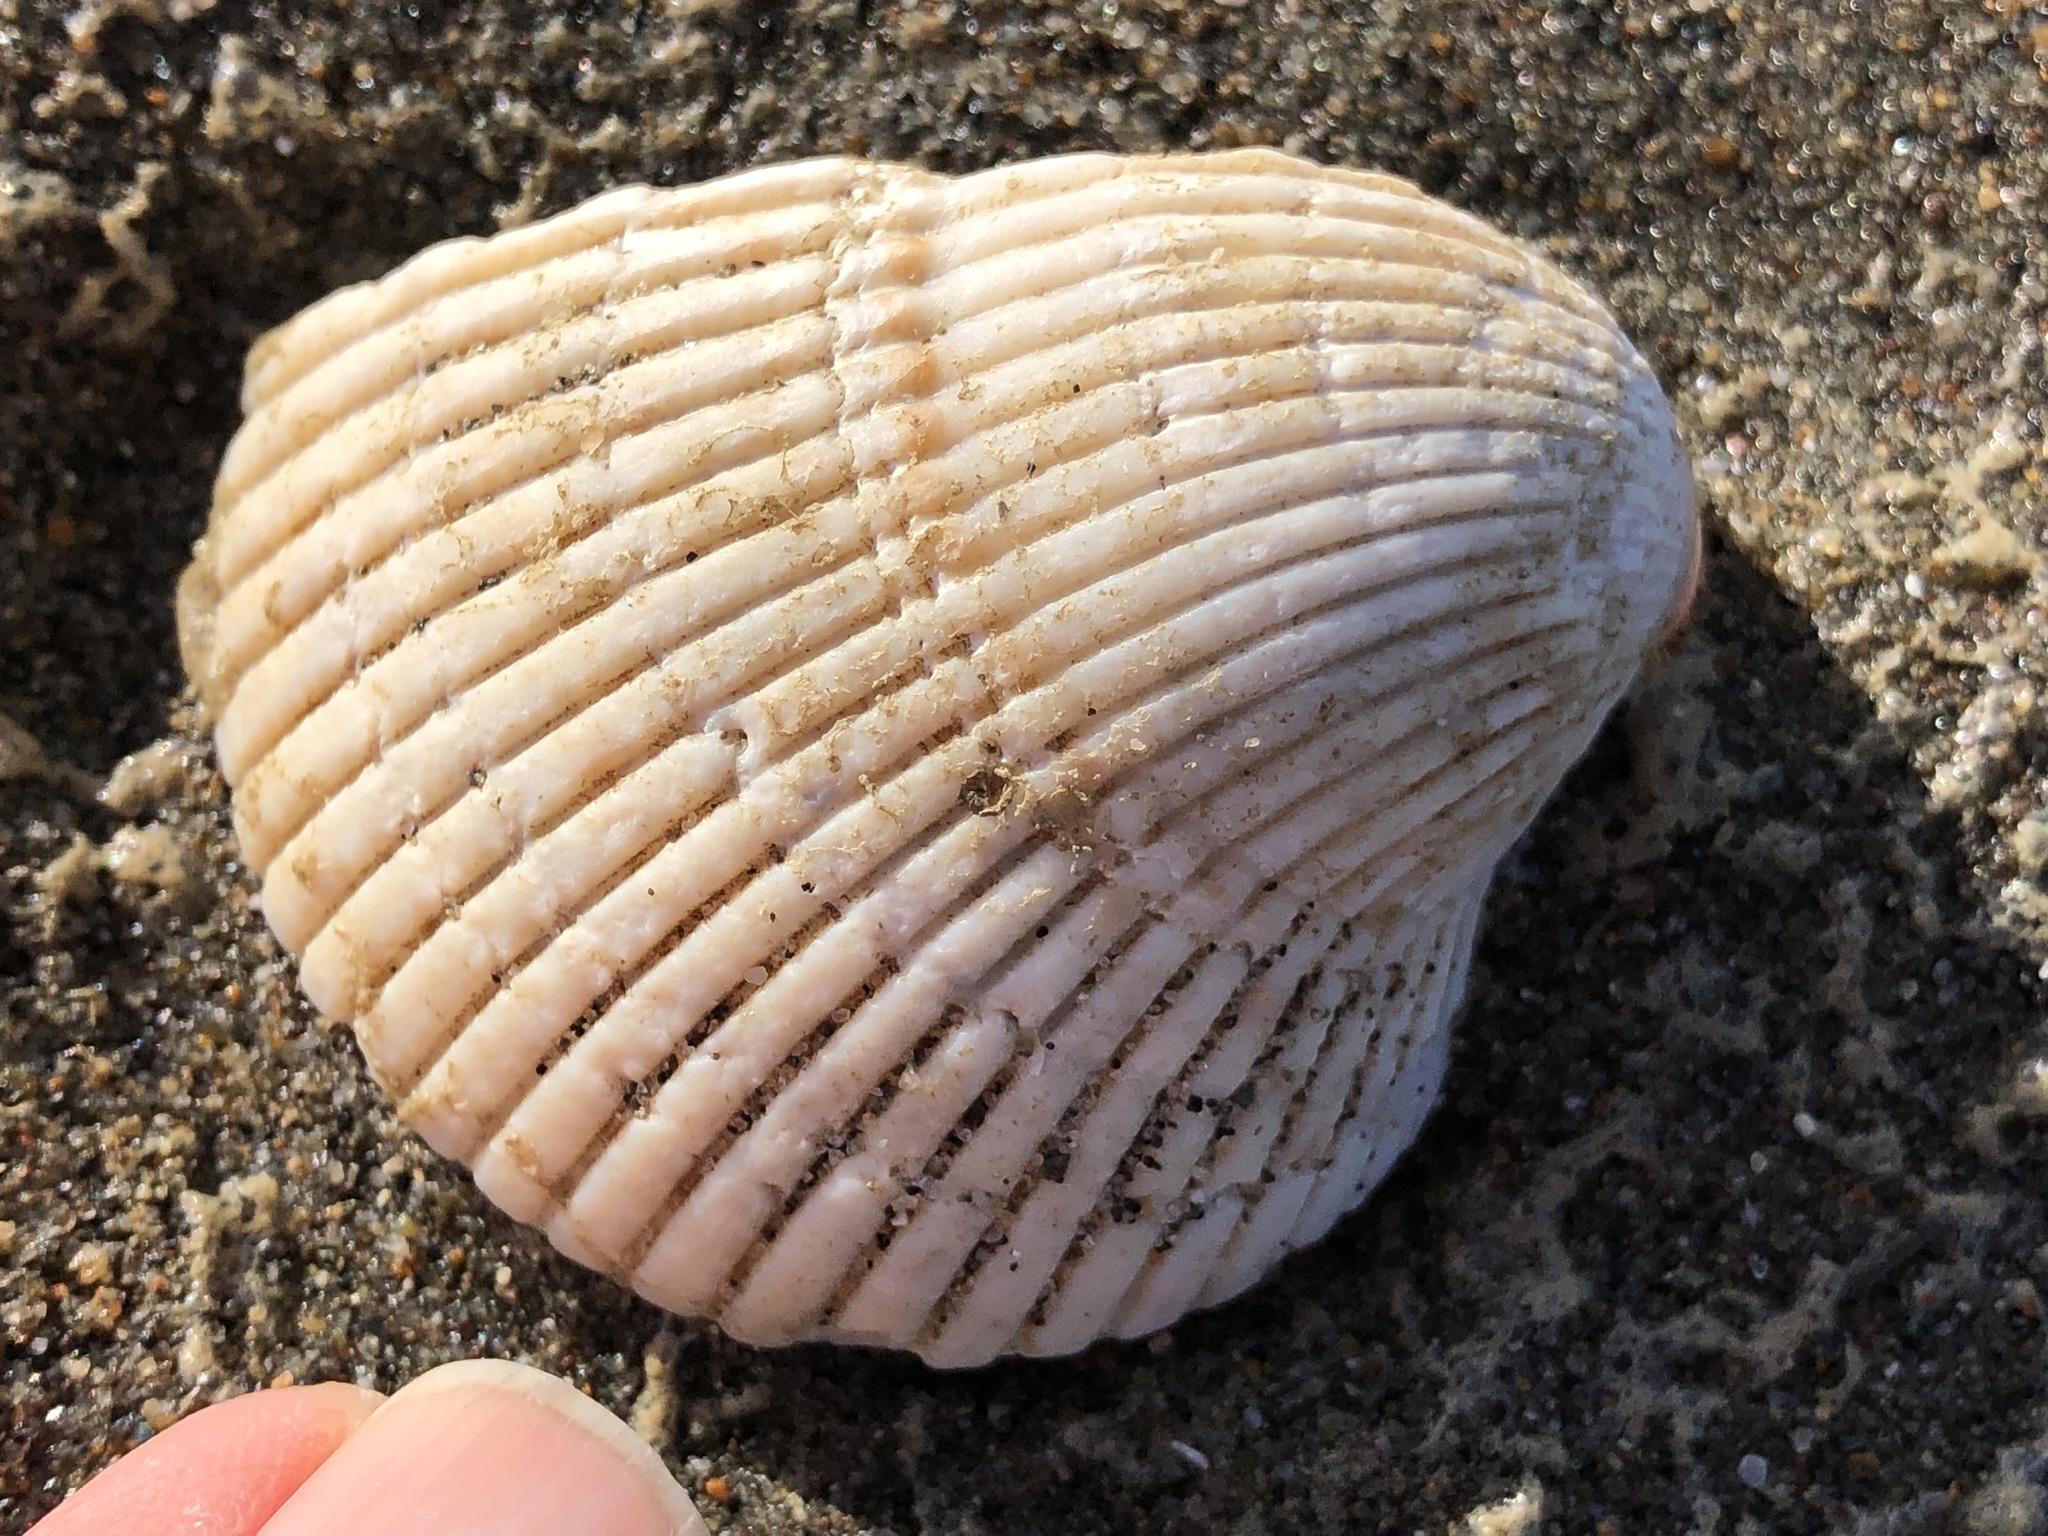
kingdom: Animalia
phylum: Mollusca
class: Bivalvia
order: Cardiida
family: Cardiidae
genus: Clinocardium
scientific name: Clinocardium nuttallii
